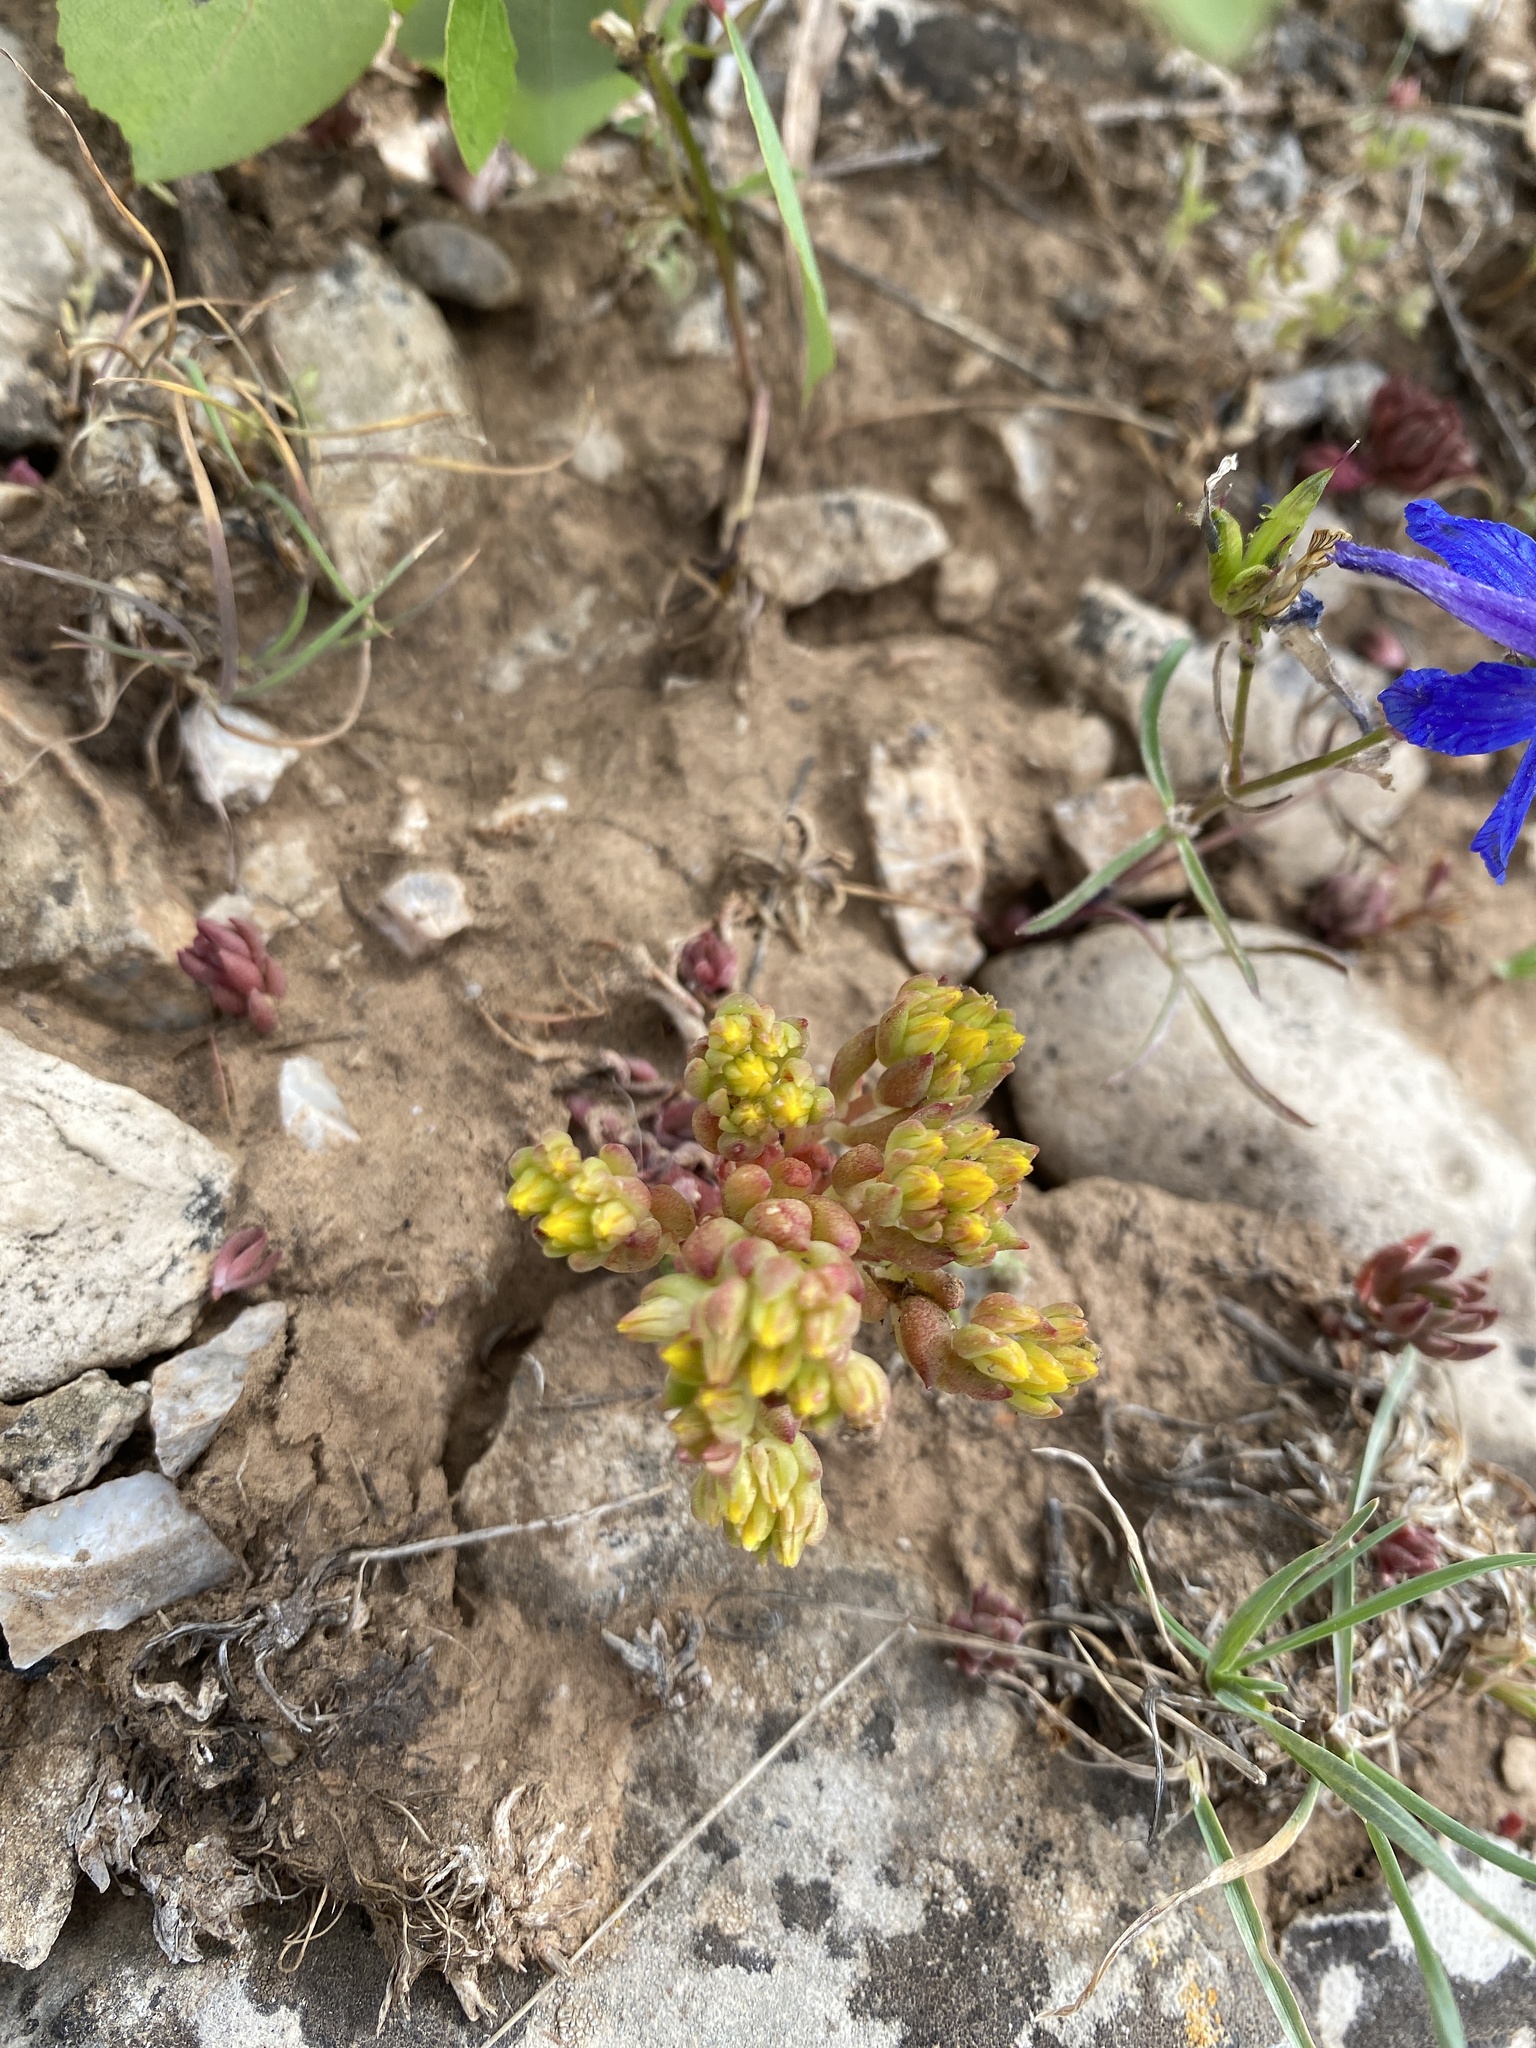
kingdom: Plantae
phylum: Tracheophyta
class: Magnoliopsida
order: Saxifragales
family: Crassulaceae
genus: Sedum
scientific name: Sedum lanceolatum
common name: Common stonecrop
